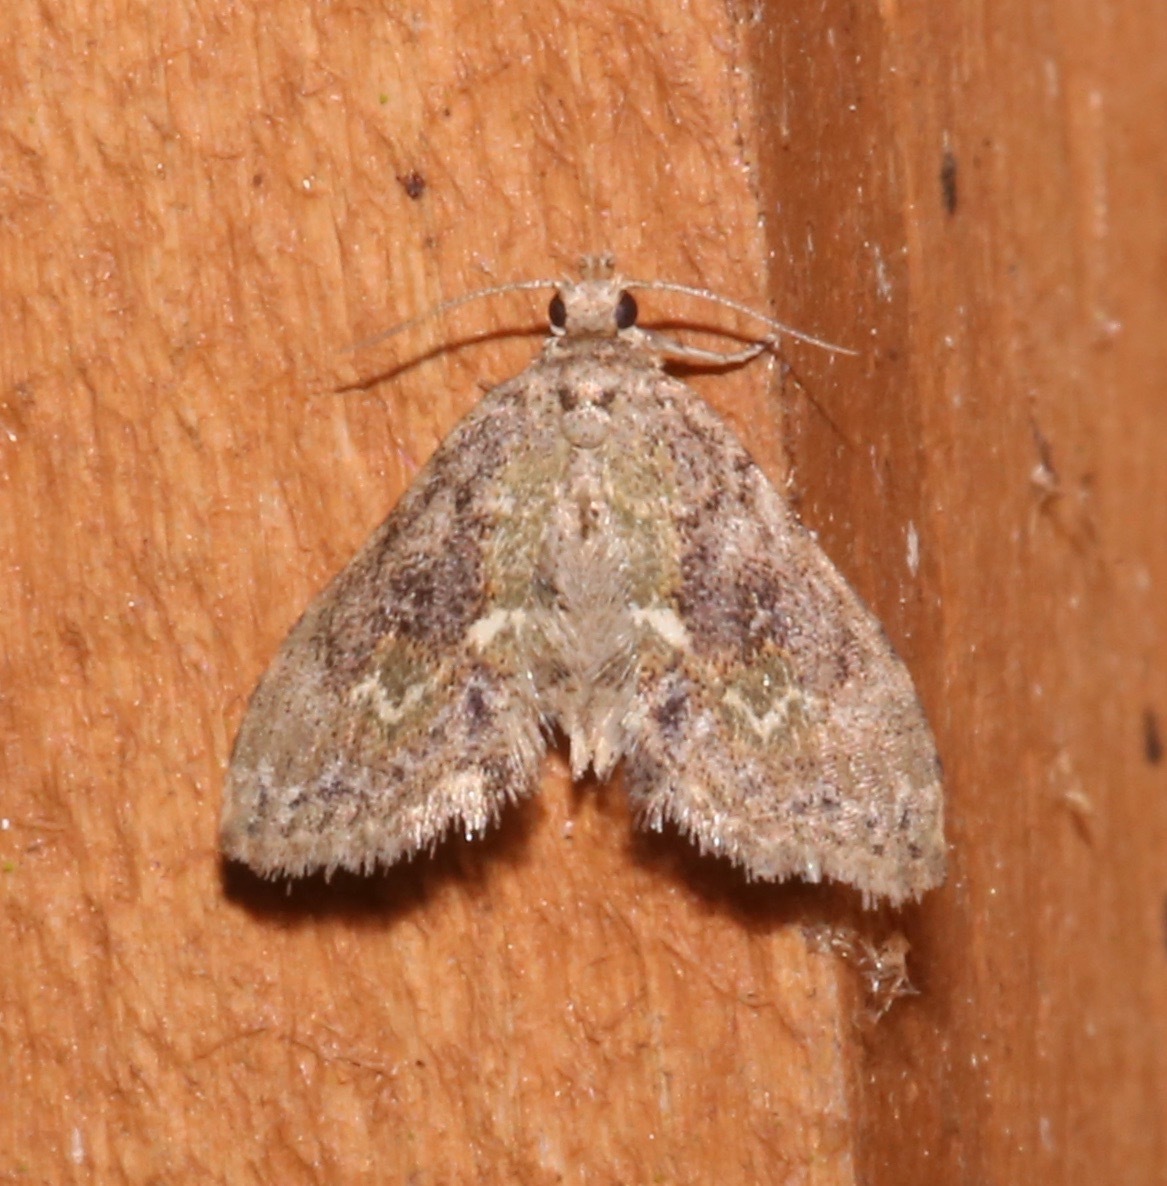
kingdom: Animalia
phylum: Arthropoda
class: Insecta
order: Lepidoptera
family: Erebidae
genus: Sigela
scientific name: Sigela sordes
